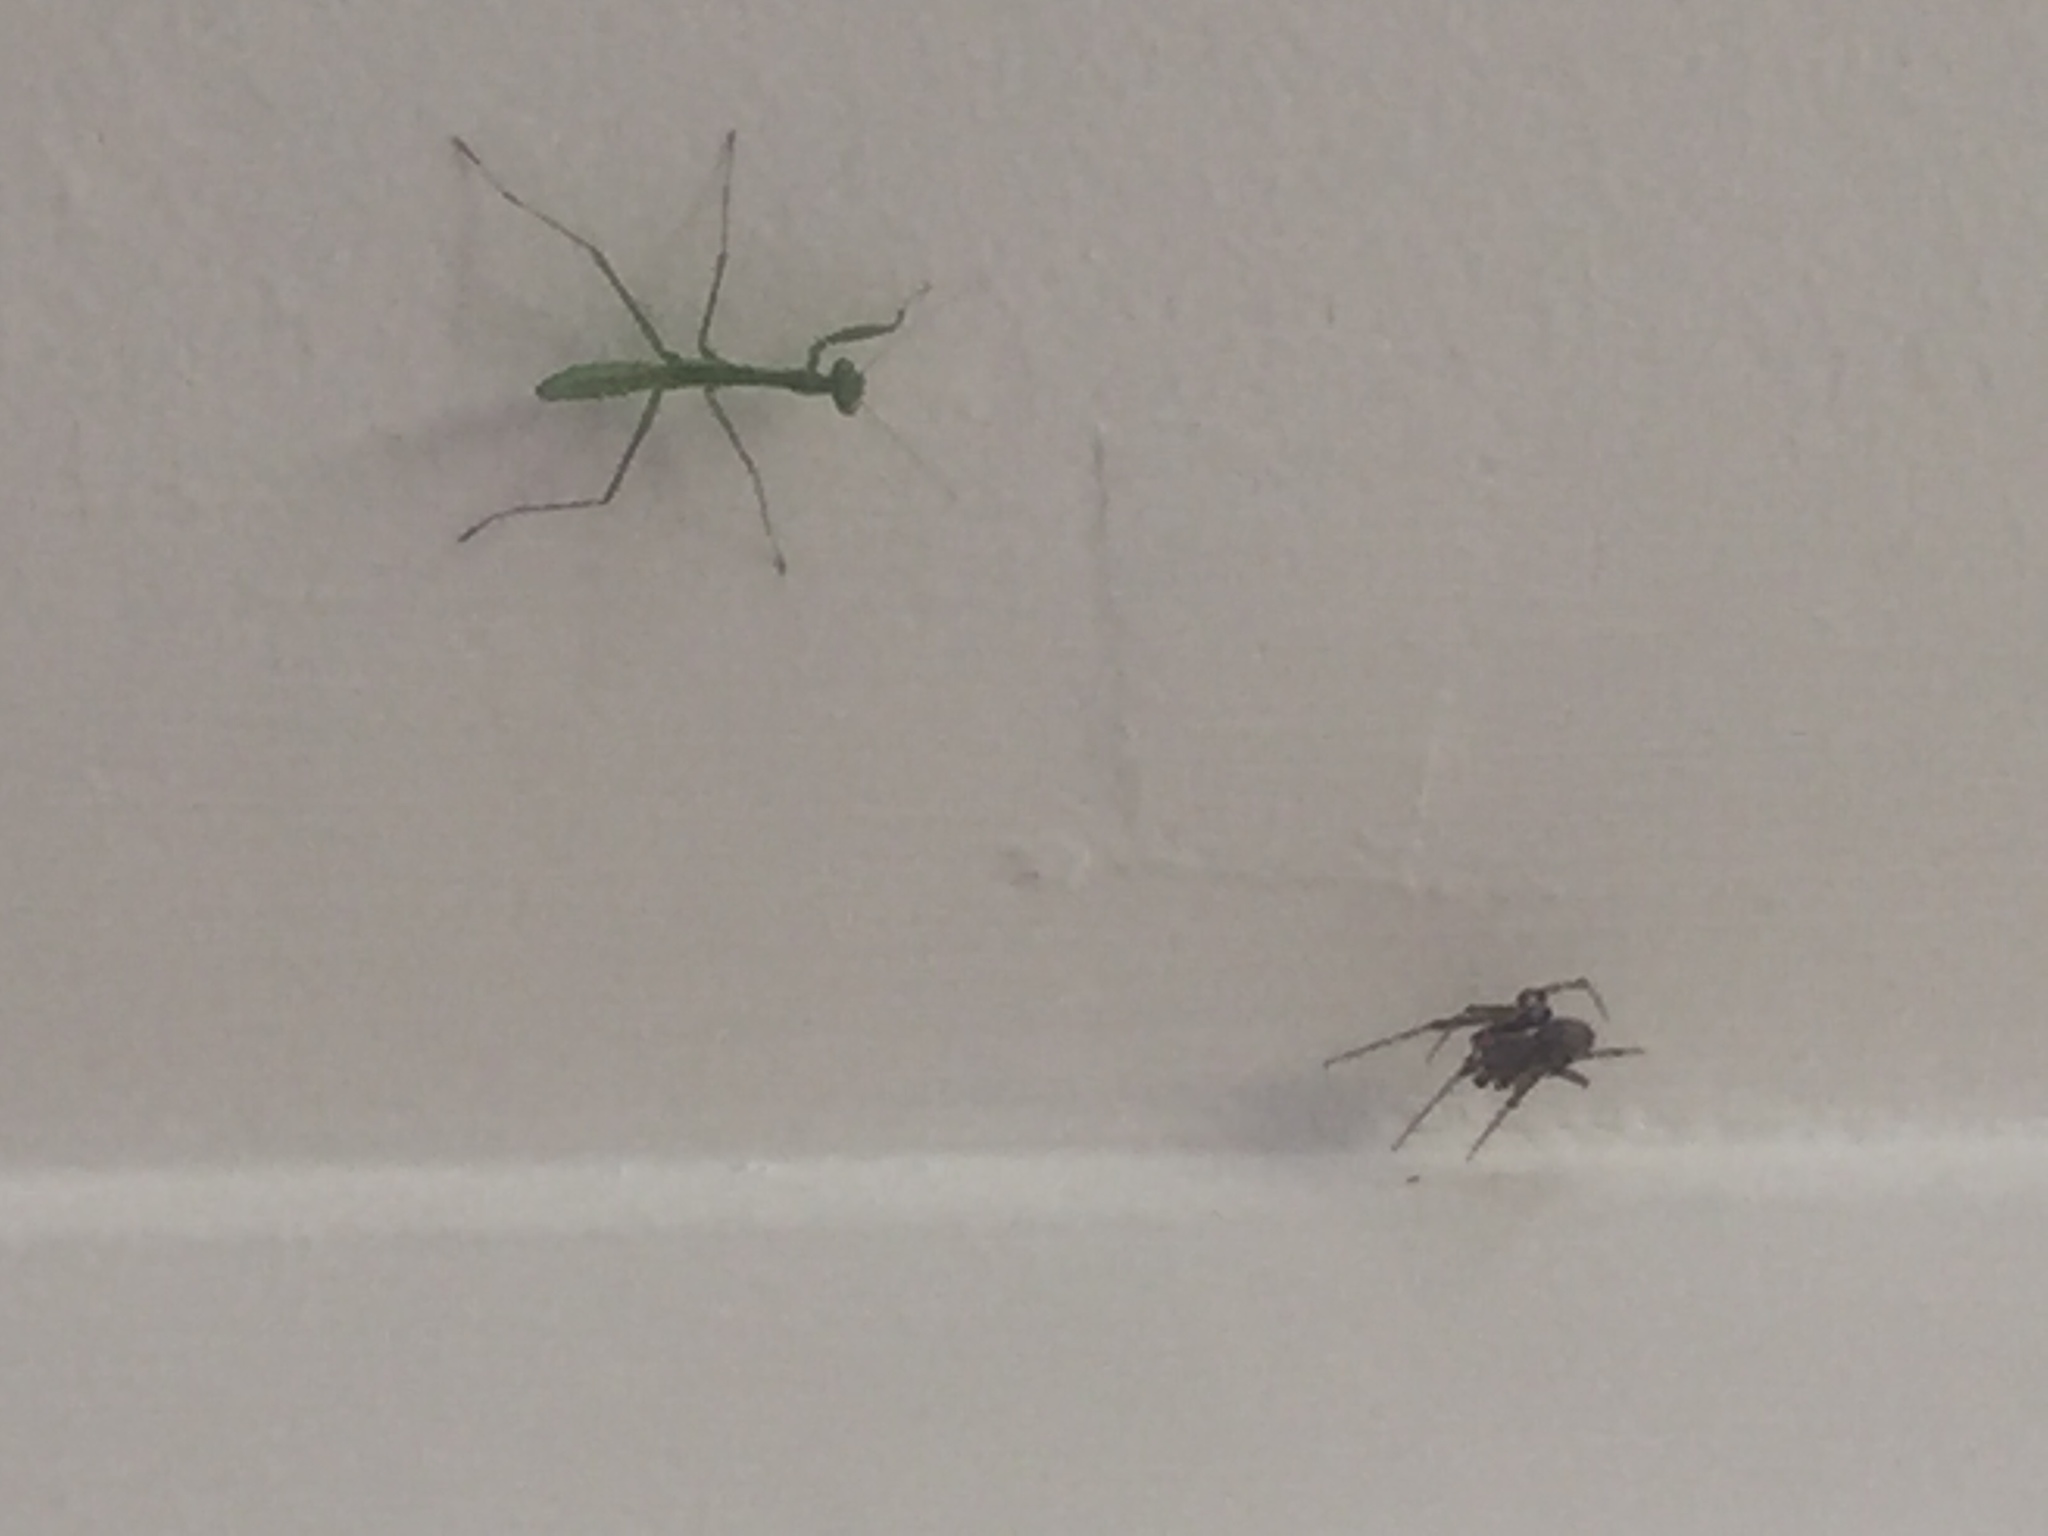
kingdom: Animalia
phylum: Arthropoda
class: Insecta
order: Mantodea
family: Miomantidae
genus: Miomantis
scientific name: Miomantis caffra
